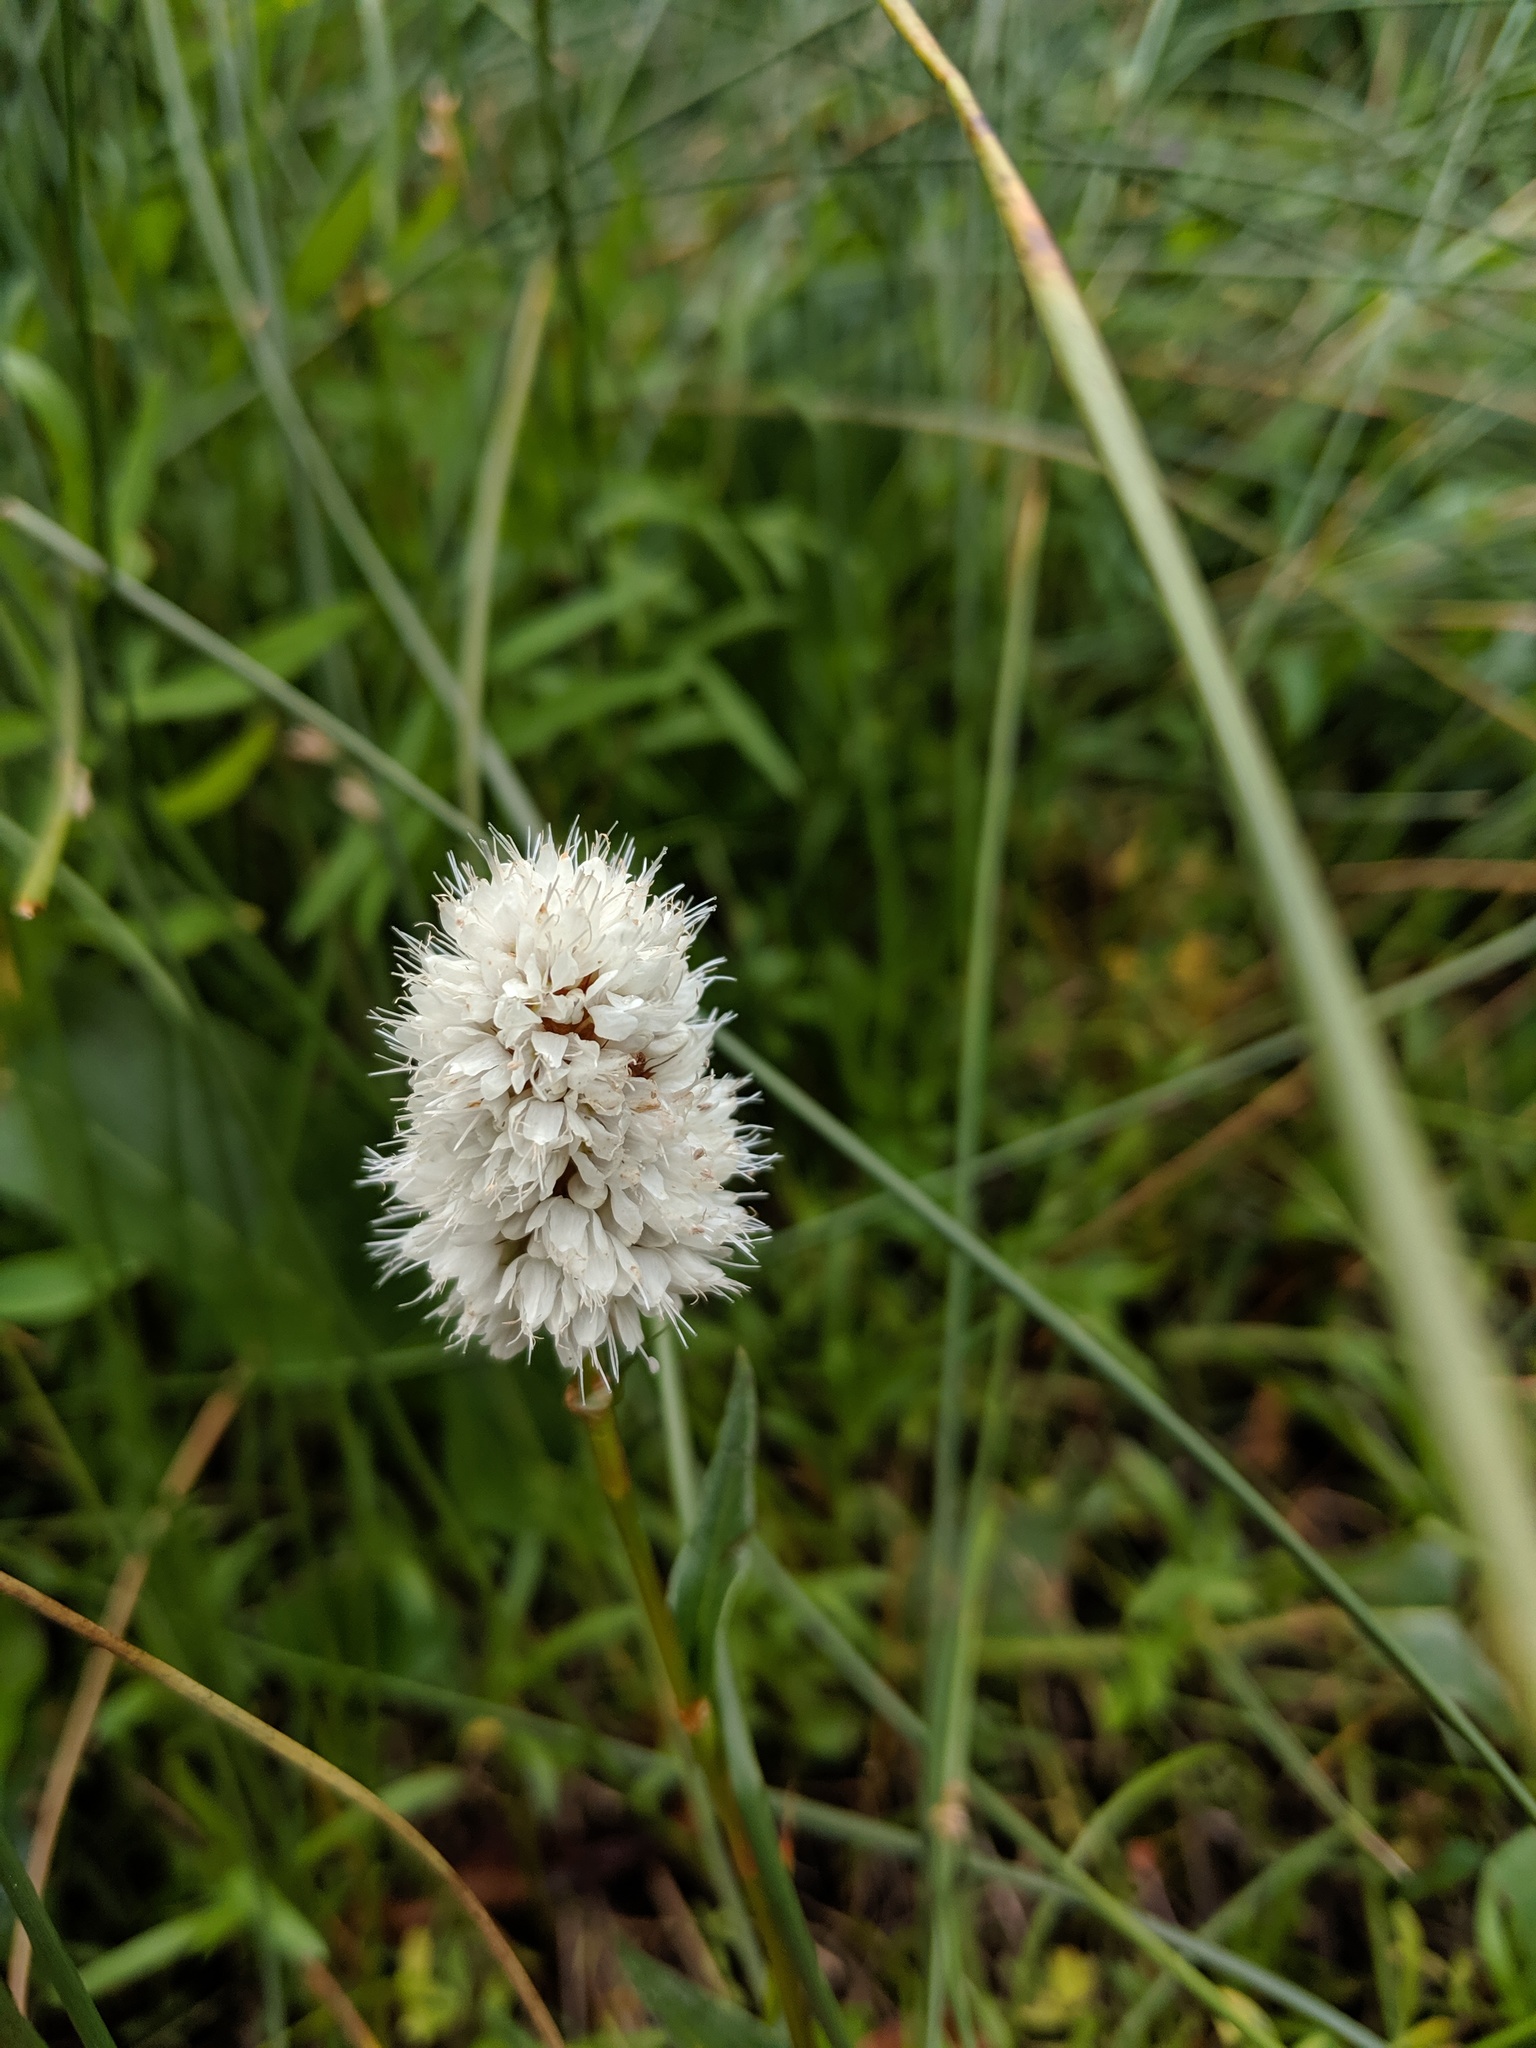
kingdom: Plantae
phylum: Tracheophyta
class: Magnoliopsida
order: Caryophyllales
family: Polygonaceae
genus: Bistorta
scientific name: Bistorta bistortoides
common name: American bistort
